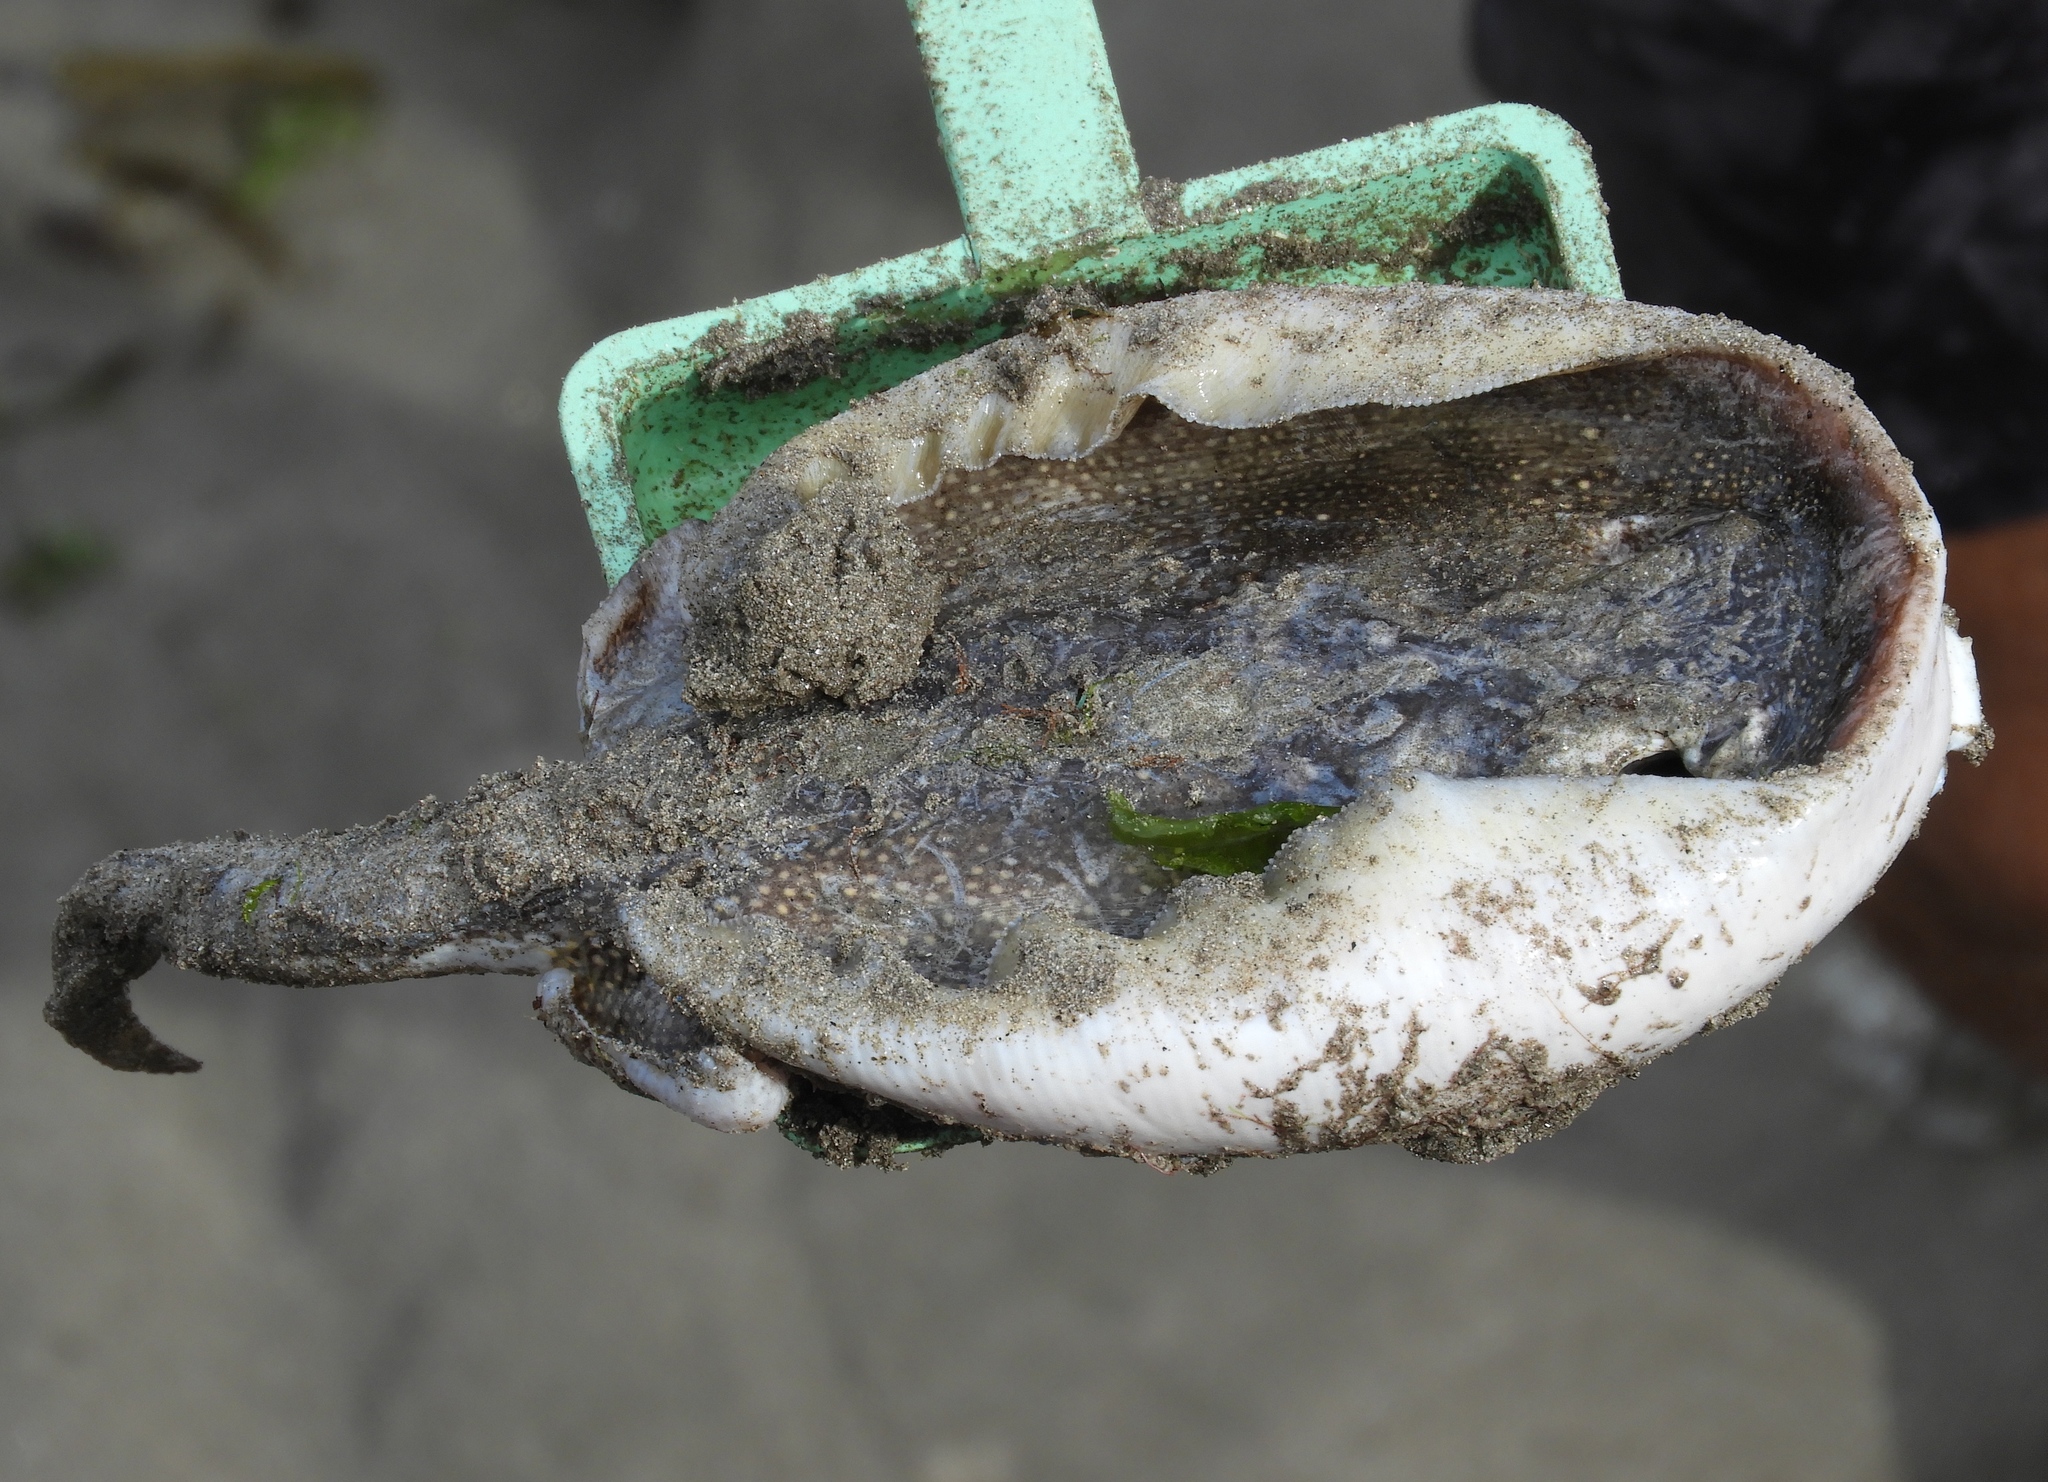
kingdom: Animalia
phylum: Chordata
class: Elasmobranchii
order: Myliobatiformes
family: Urolophidae
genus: Urolophus
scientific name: Urolophus halleri
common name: Round stingray
